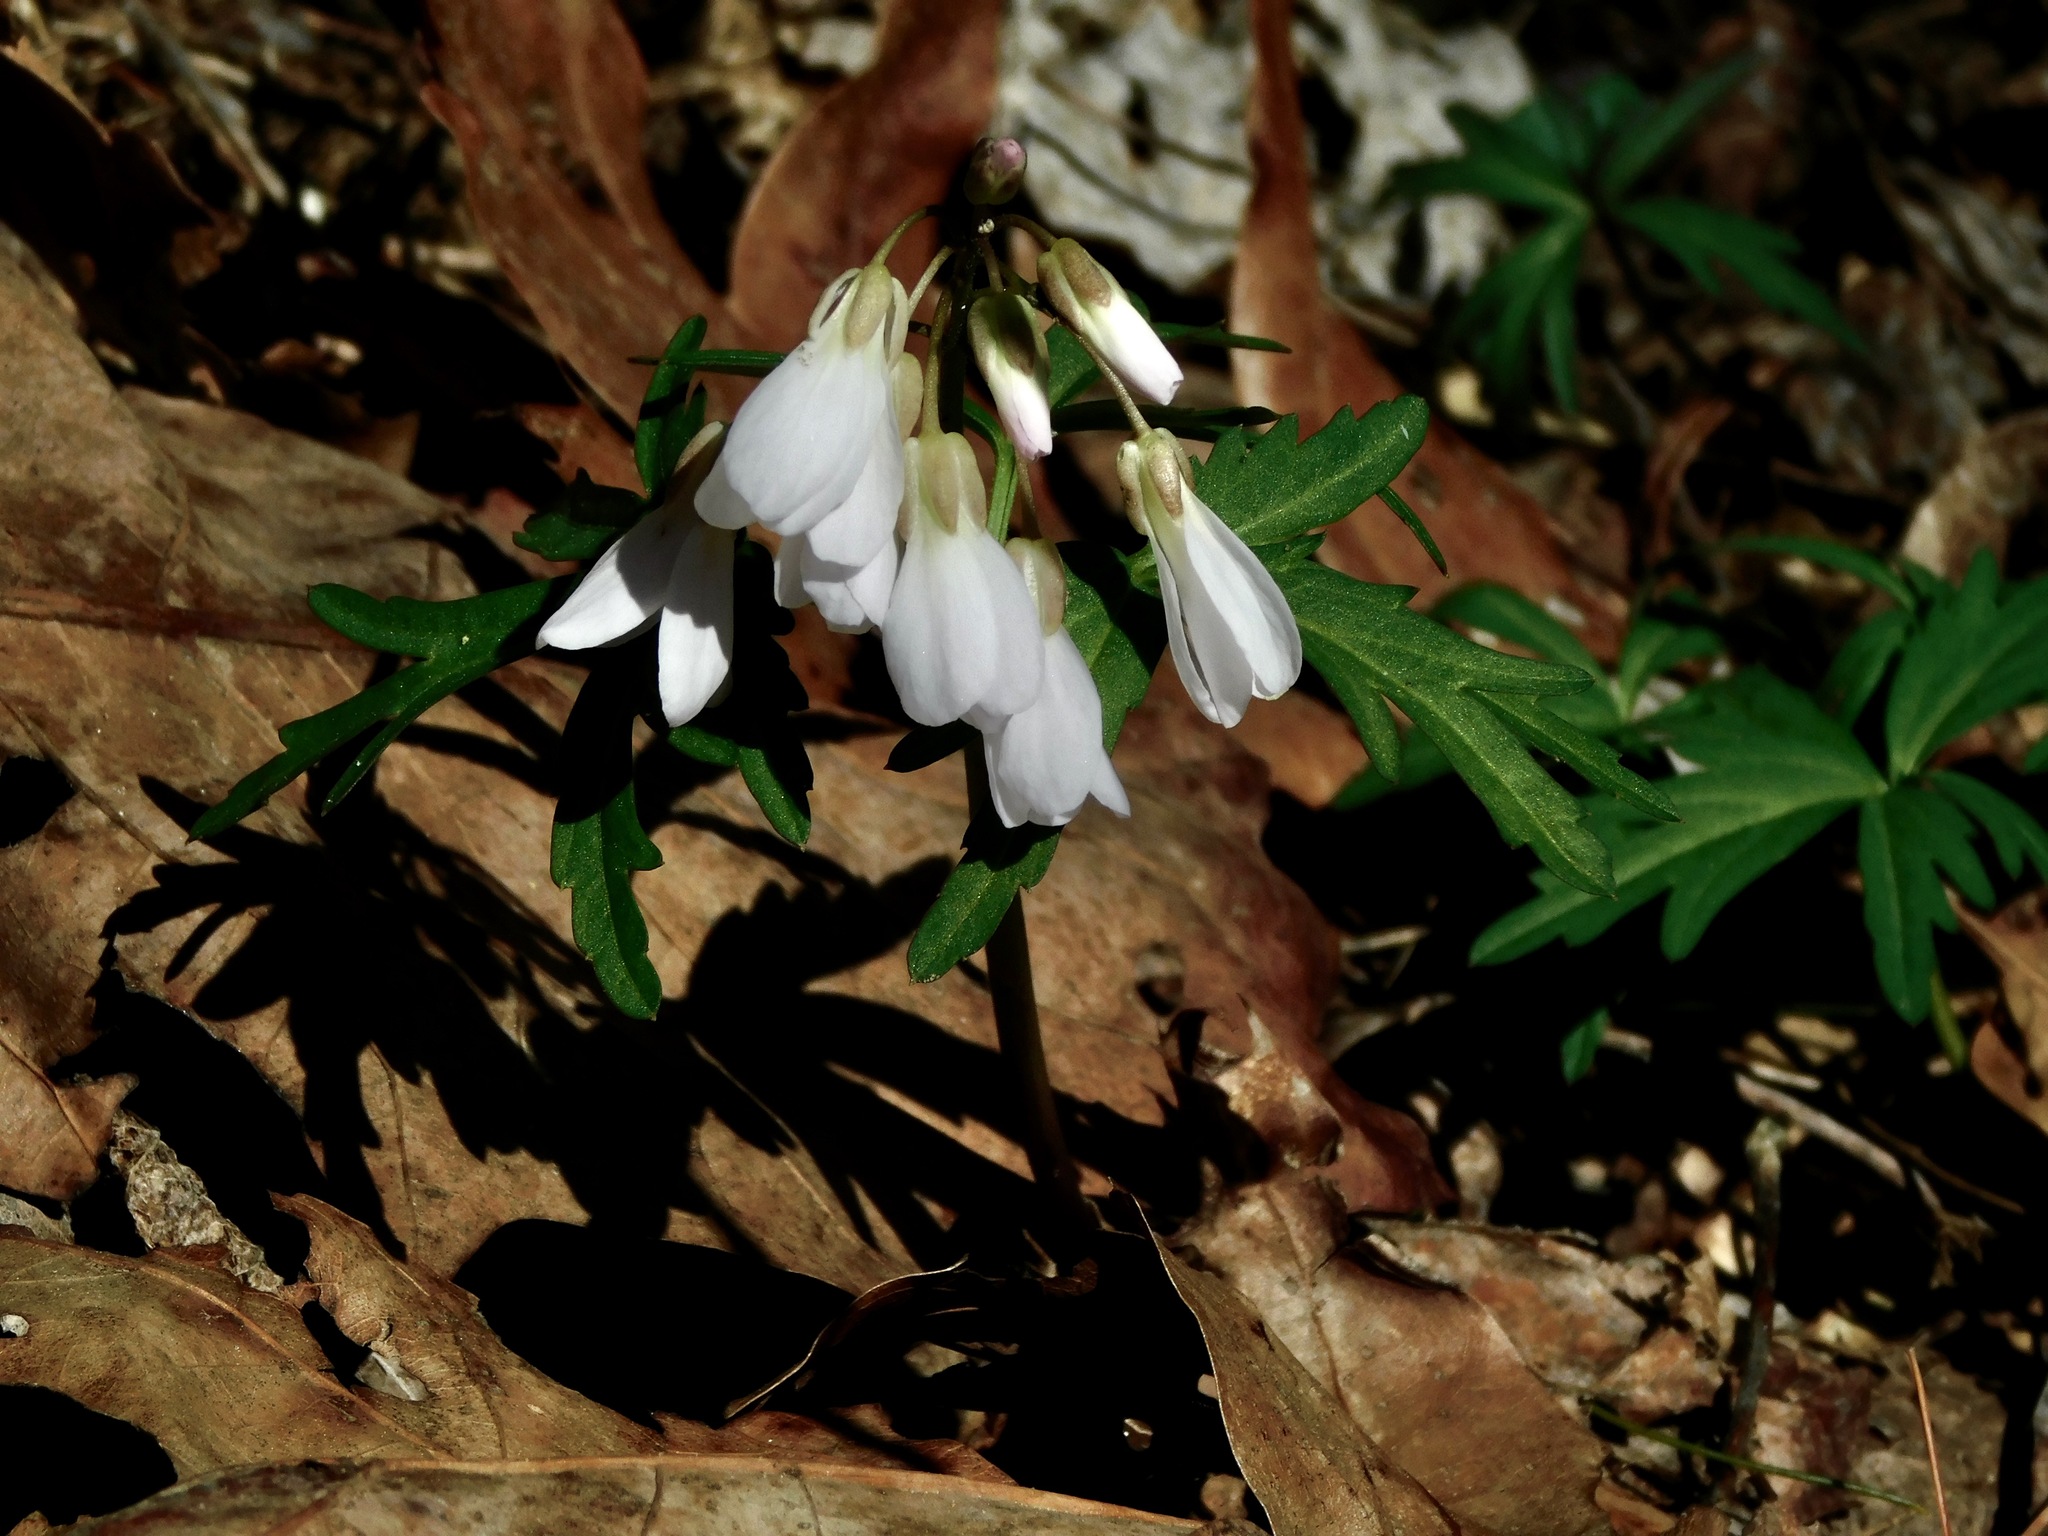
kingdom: Plantae
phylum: Tracheophyta
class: Magnoliopsida
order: Brassicales
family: Brassicaceae
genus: Cardamine
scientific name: Cardamine concatenata
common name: Cut-leaf toothcup
